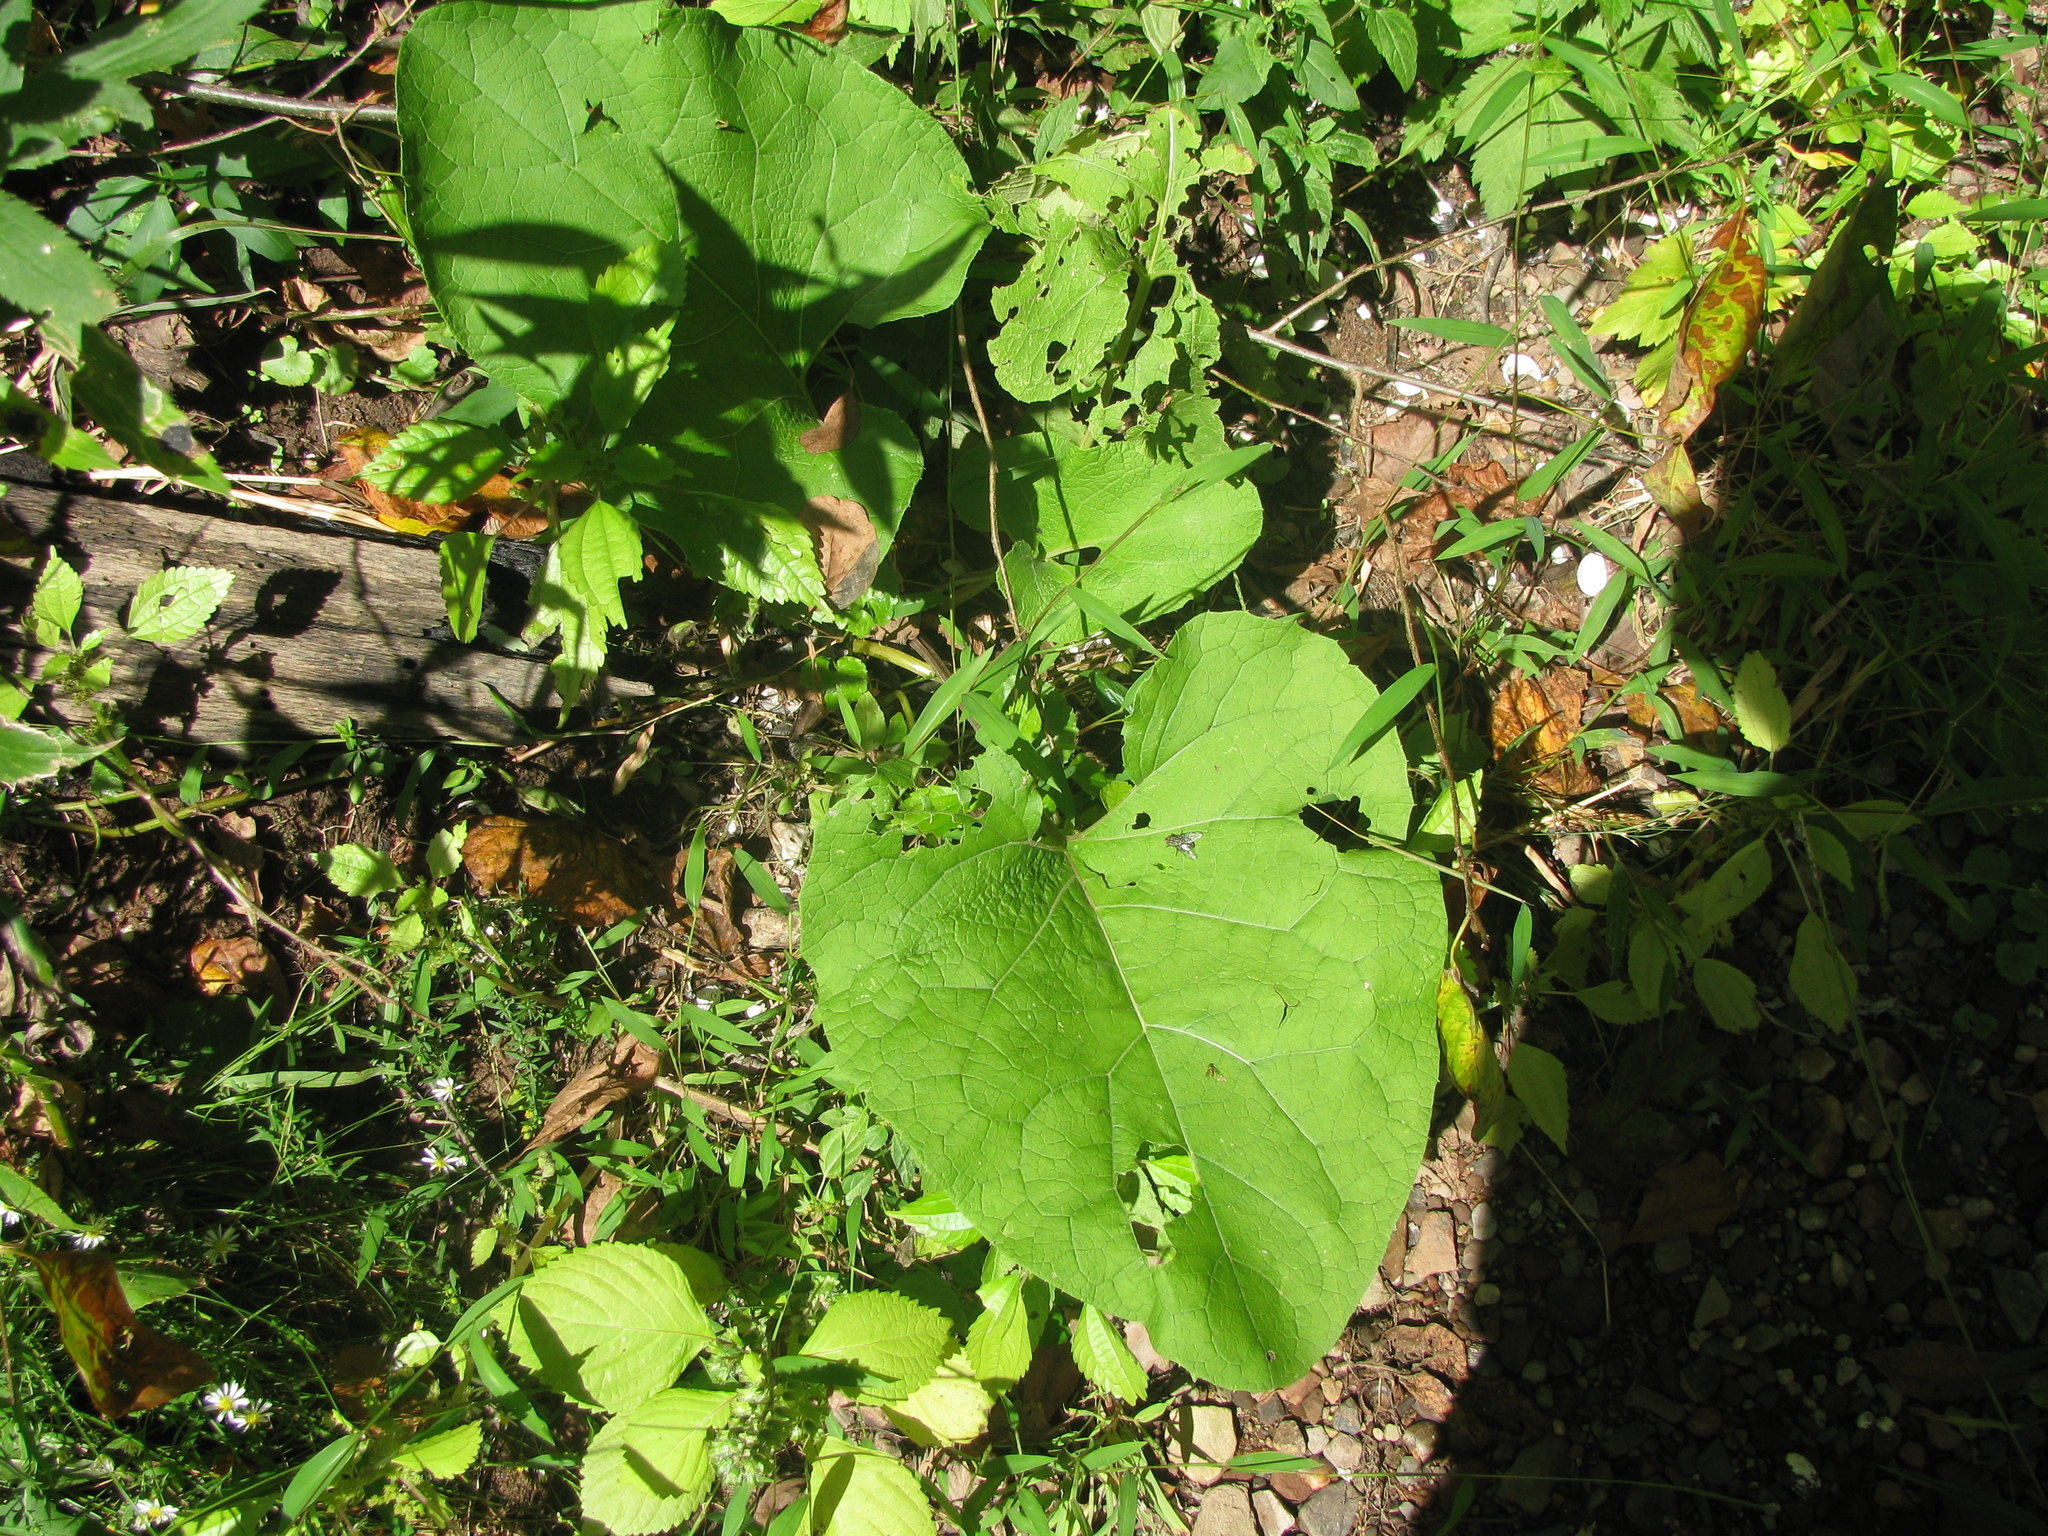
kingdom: Plantae
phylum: Tracheophyta
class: Magnoliopsida
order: Asterales
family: Asteraceae
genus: Arctium
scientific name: Arctium
